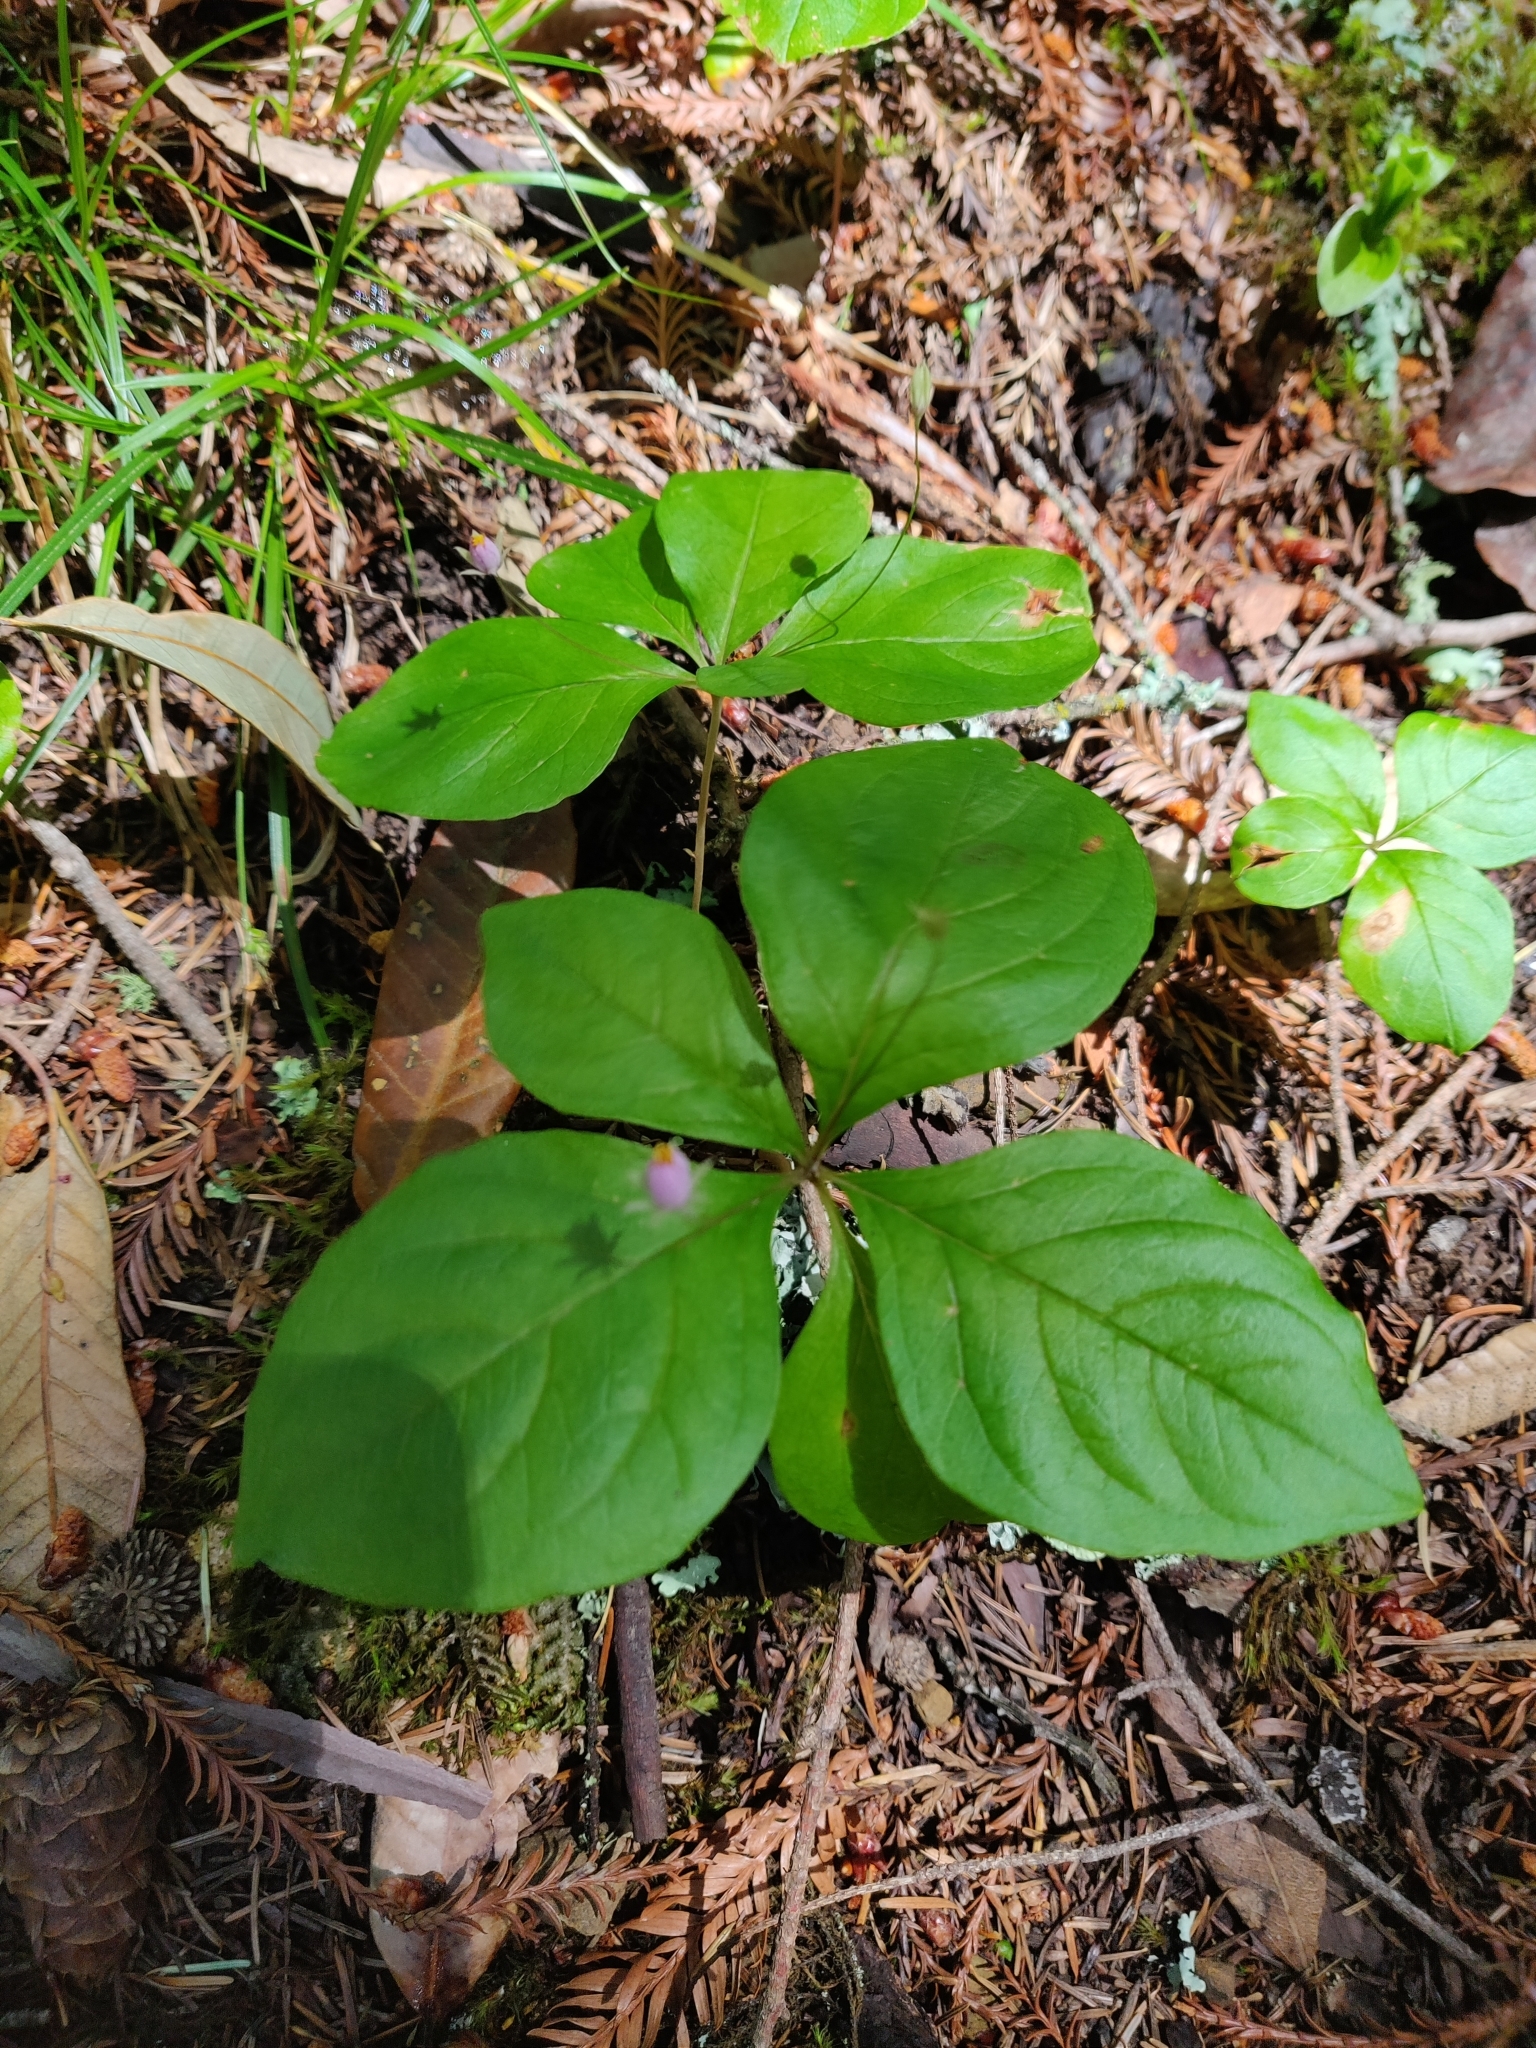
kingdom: Plantae
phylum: Tracheophyta
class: Magnoliopsida
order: Ericales
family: Primulaceae
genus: Lysimachia
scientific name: Lysimachia latifolia
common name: Pacific starflower
